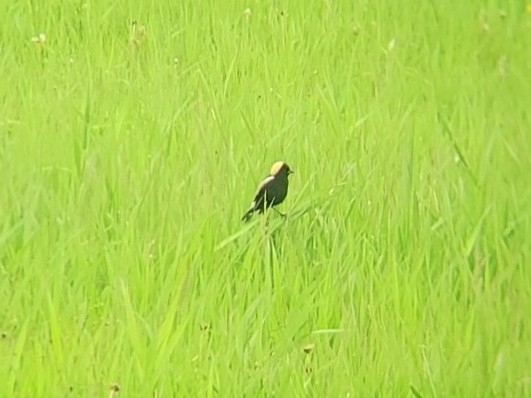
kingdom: Animalia
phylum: Chordata
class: Aves
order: Passeriformes
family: Icteridae
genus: Dolichonyx
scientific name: Dolichonyx oryzivorus
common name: Bobolink
